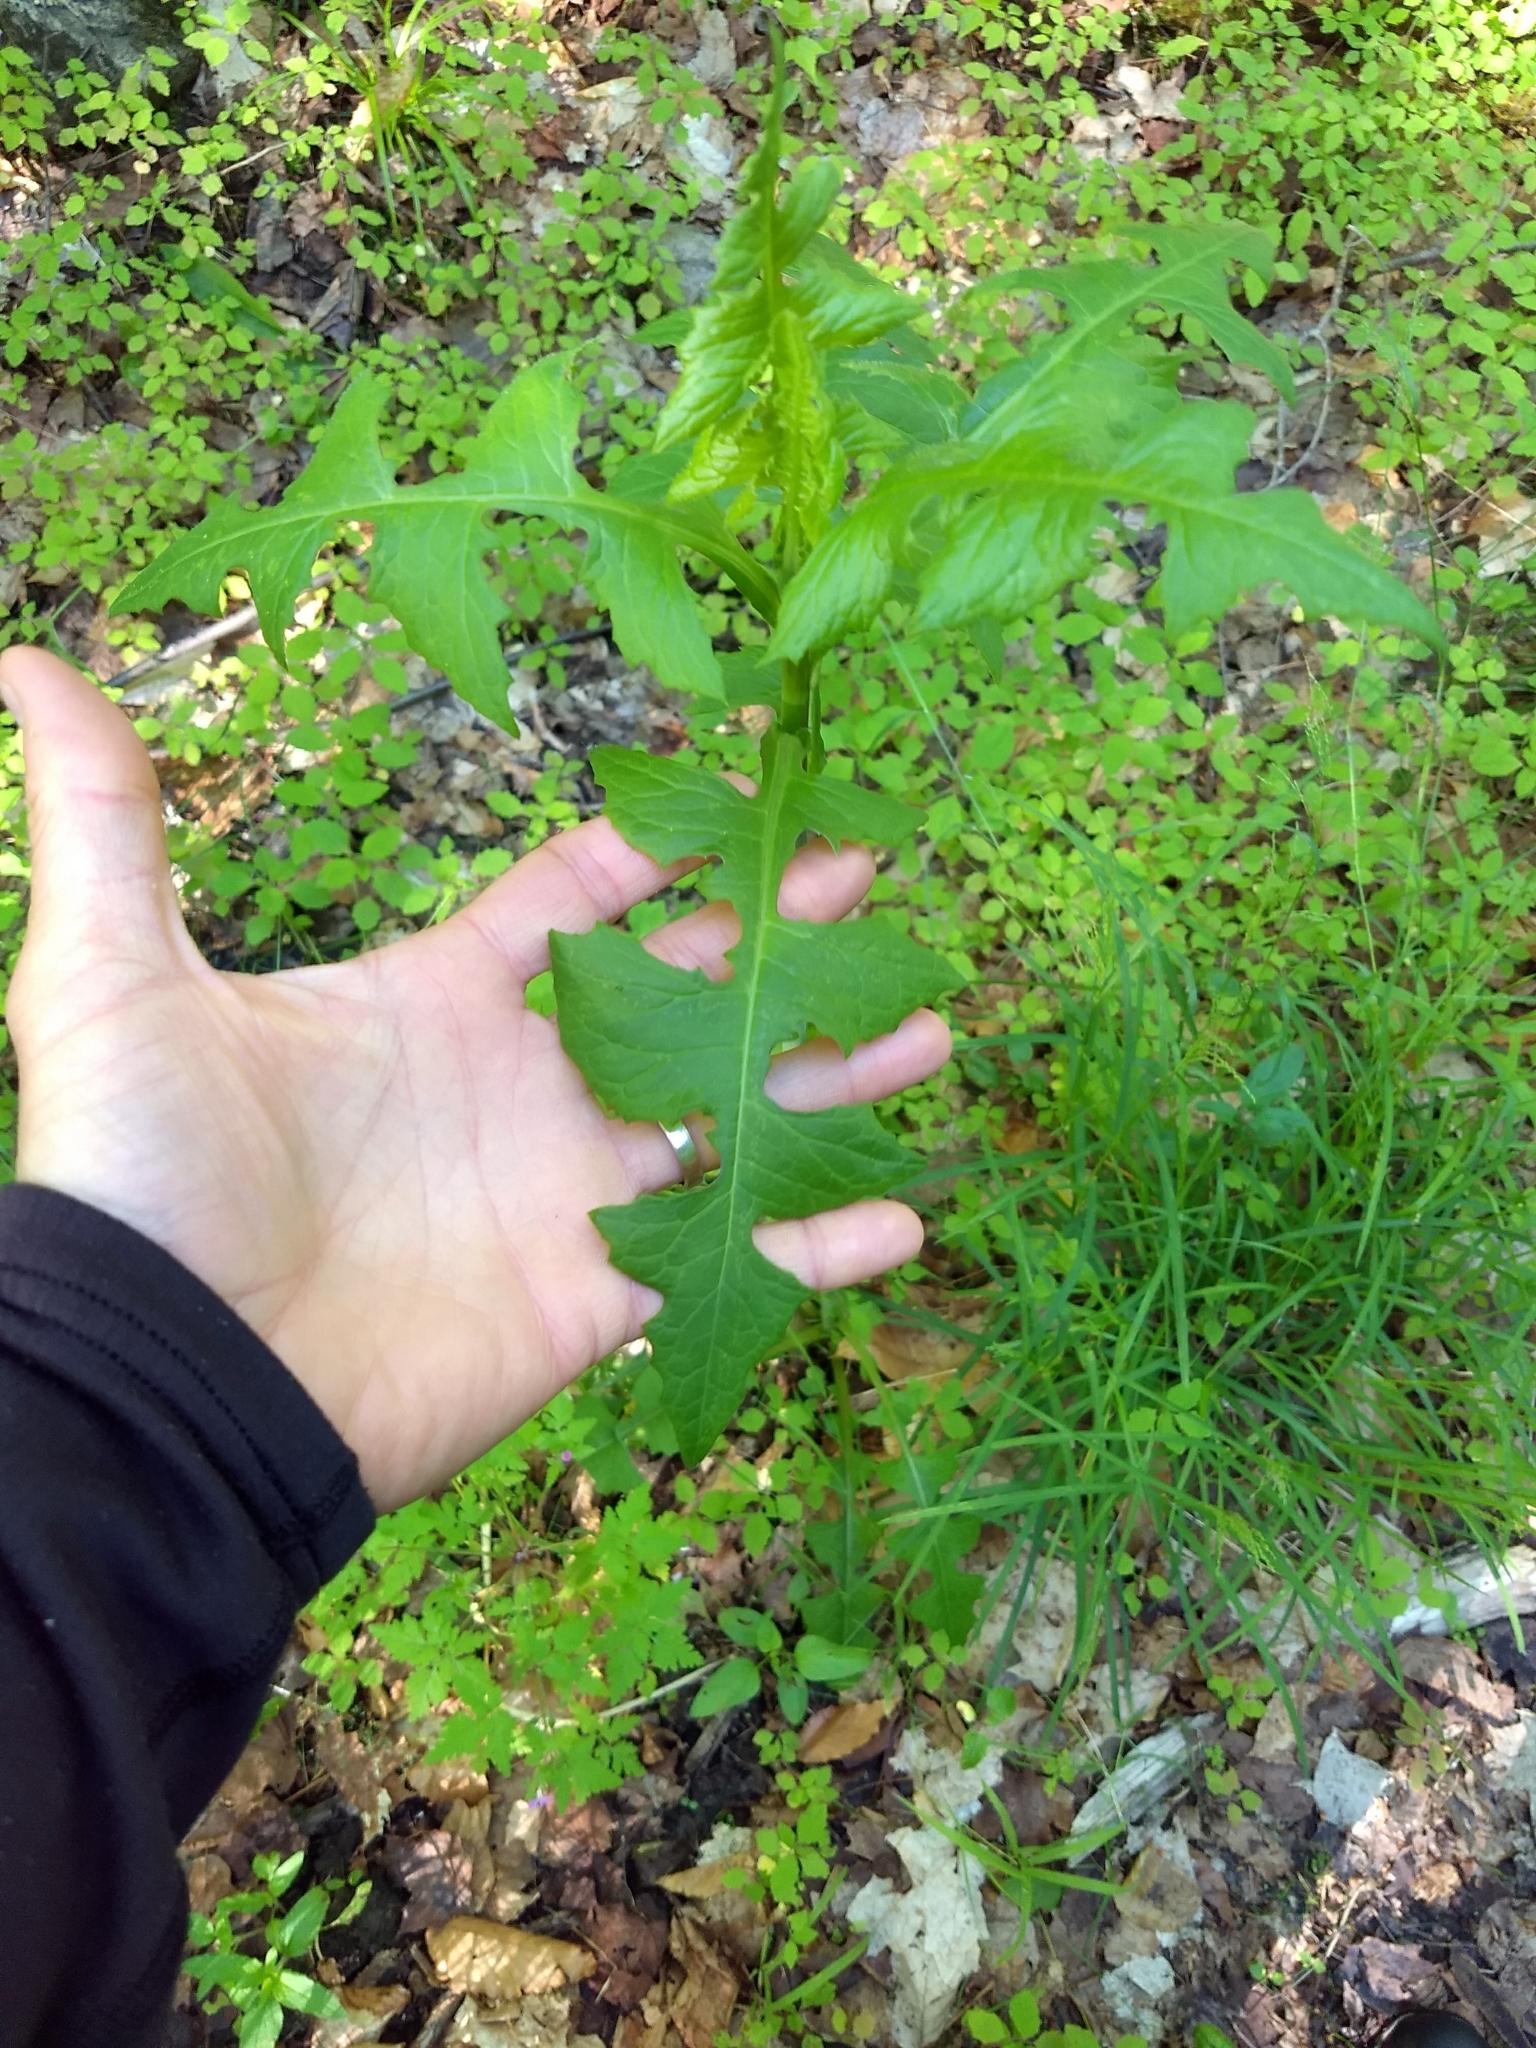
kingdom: Plantae
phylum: Tracheophyta
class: Magnoliopsida
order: Asterales
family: Asteraceae
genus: Lactuca
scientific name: Lactuca biennis
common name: Blue wood lettuce
